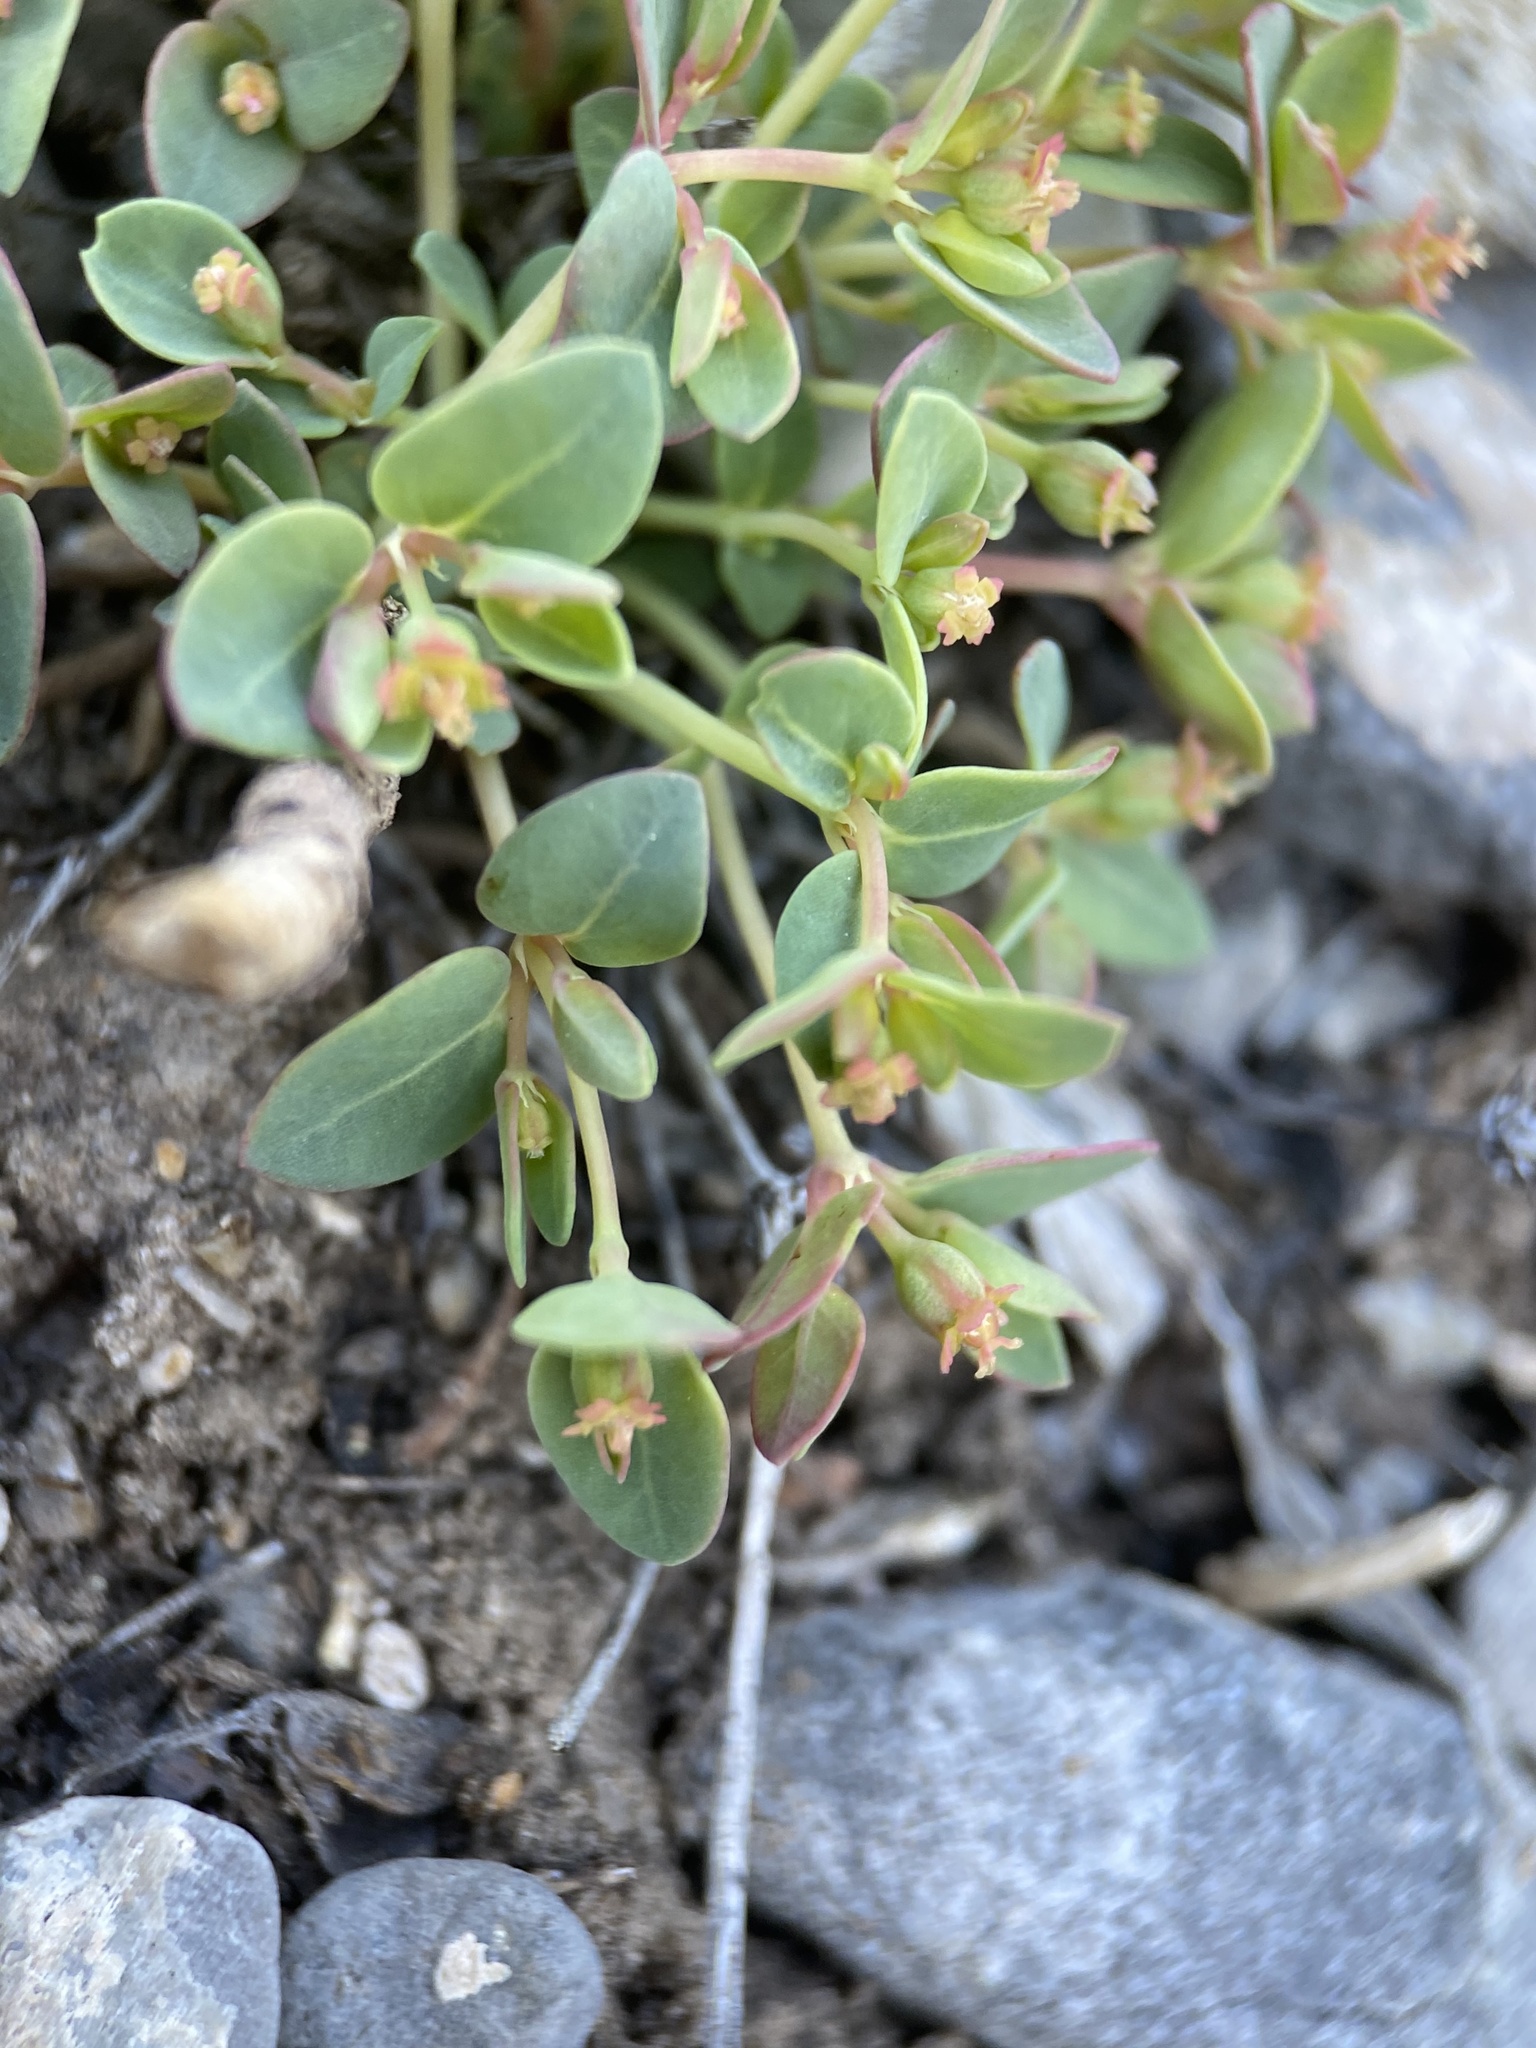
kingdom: Plantae
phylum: Tracheophyta
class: Magnoliopsida
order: Malpighiales
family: Euphorbiaceae
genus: Euphorbia
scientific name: Euphorbia fendleri
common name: Fendler's euphorbia
